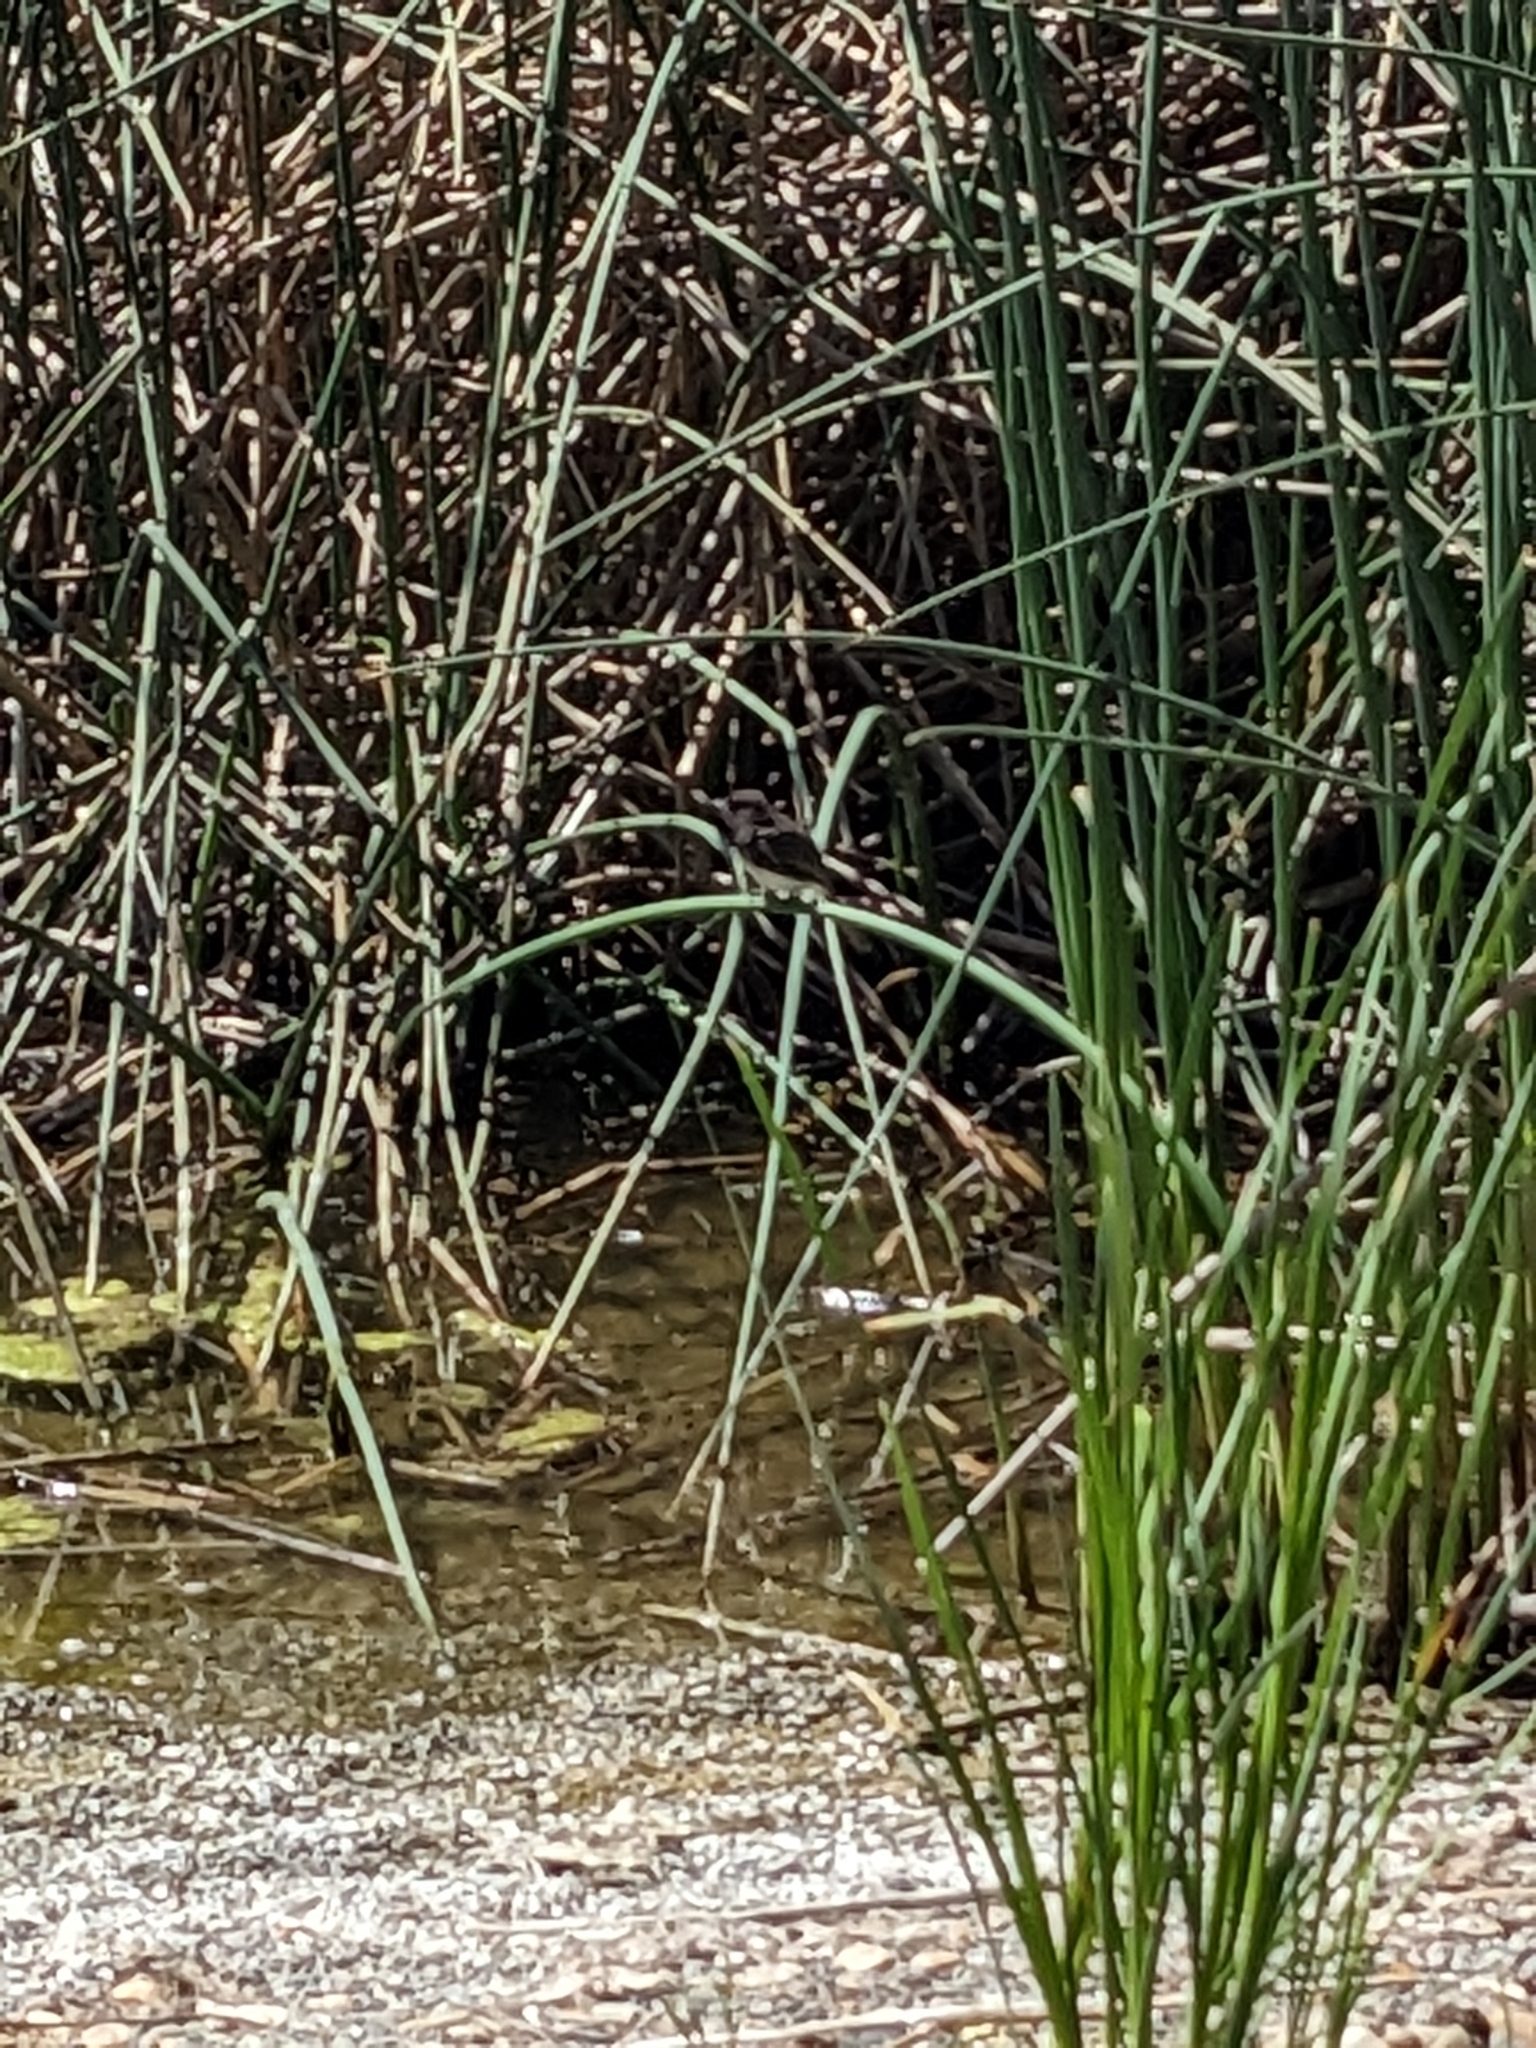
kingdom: Animalia
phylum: Chordata
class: Aves
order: Passeriformes
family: Tyrannidae
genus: Sayornis
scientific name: Sayornis nigricans
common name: Black phoebe
